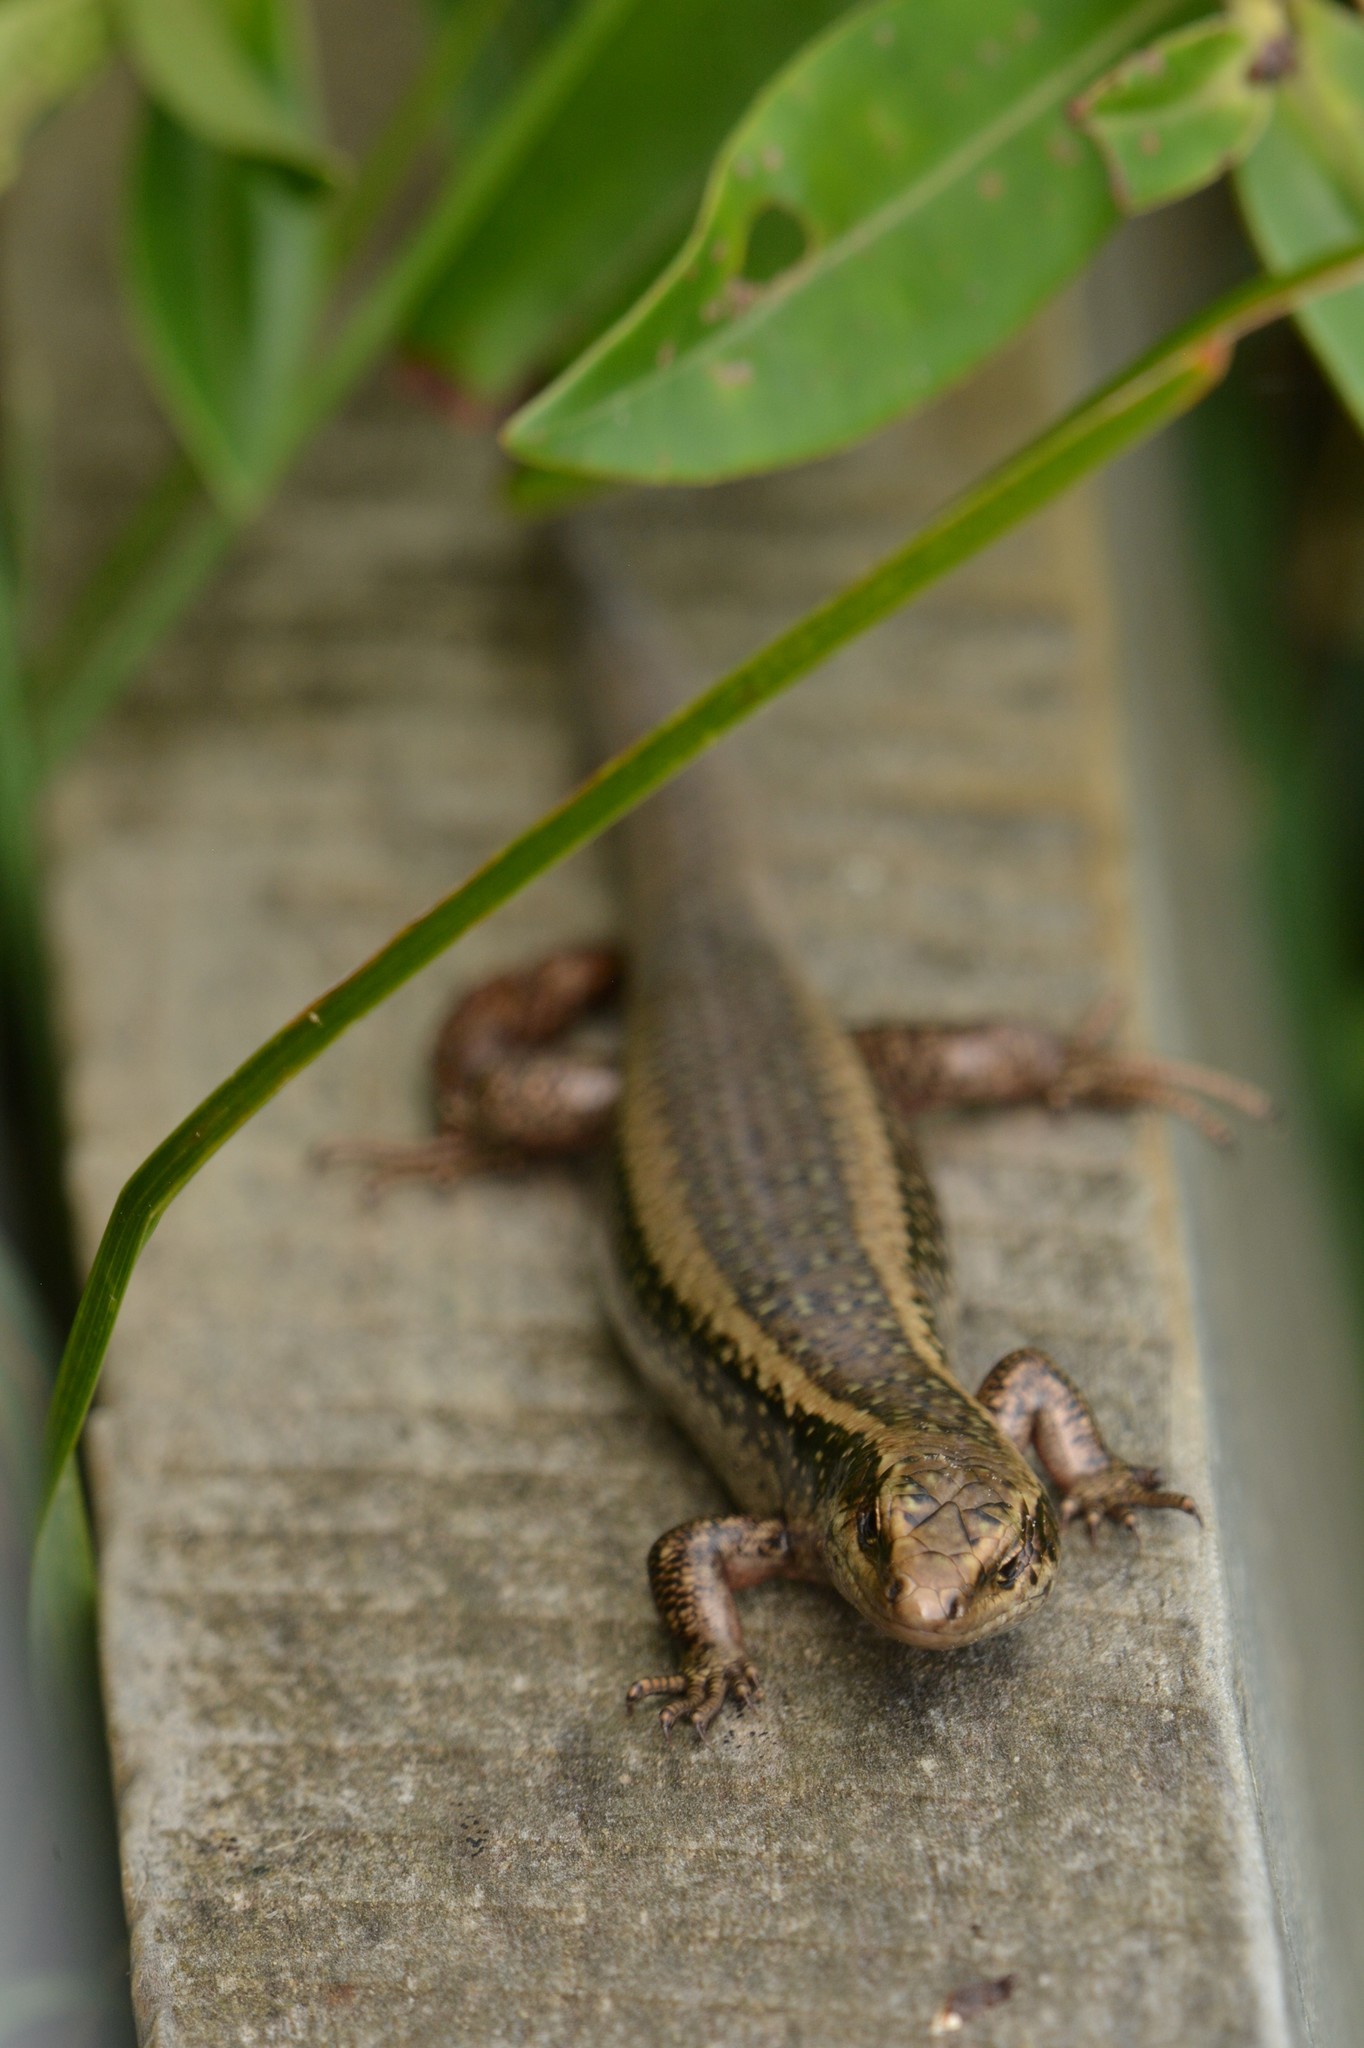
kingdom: Animalia
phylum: Chordata
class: Squamata
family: Scincidae
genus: Oligosoma
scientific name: Oligosoma kokowai
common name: Northern spotted skink
